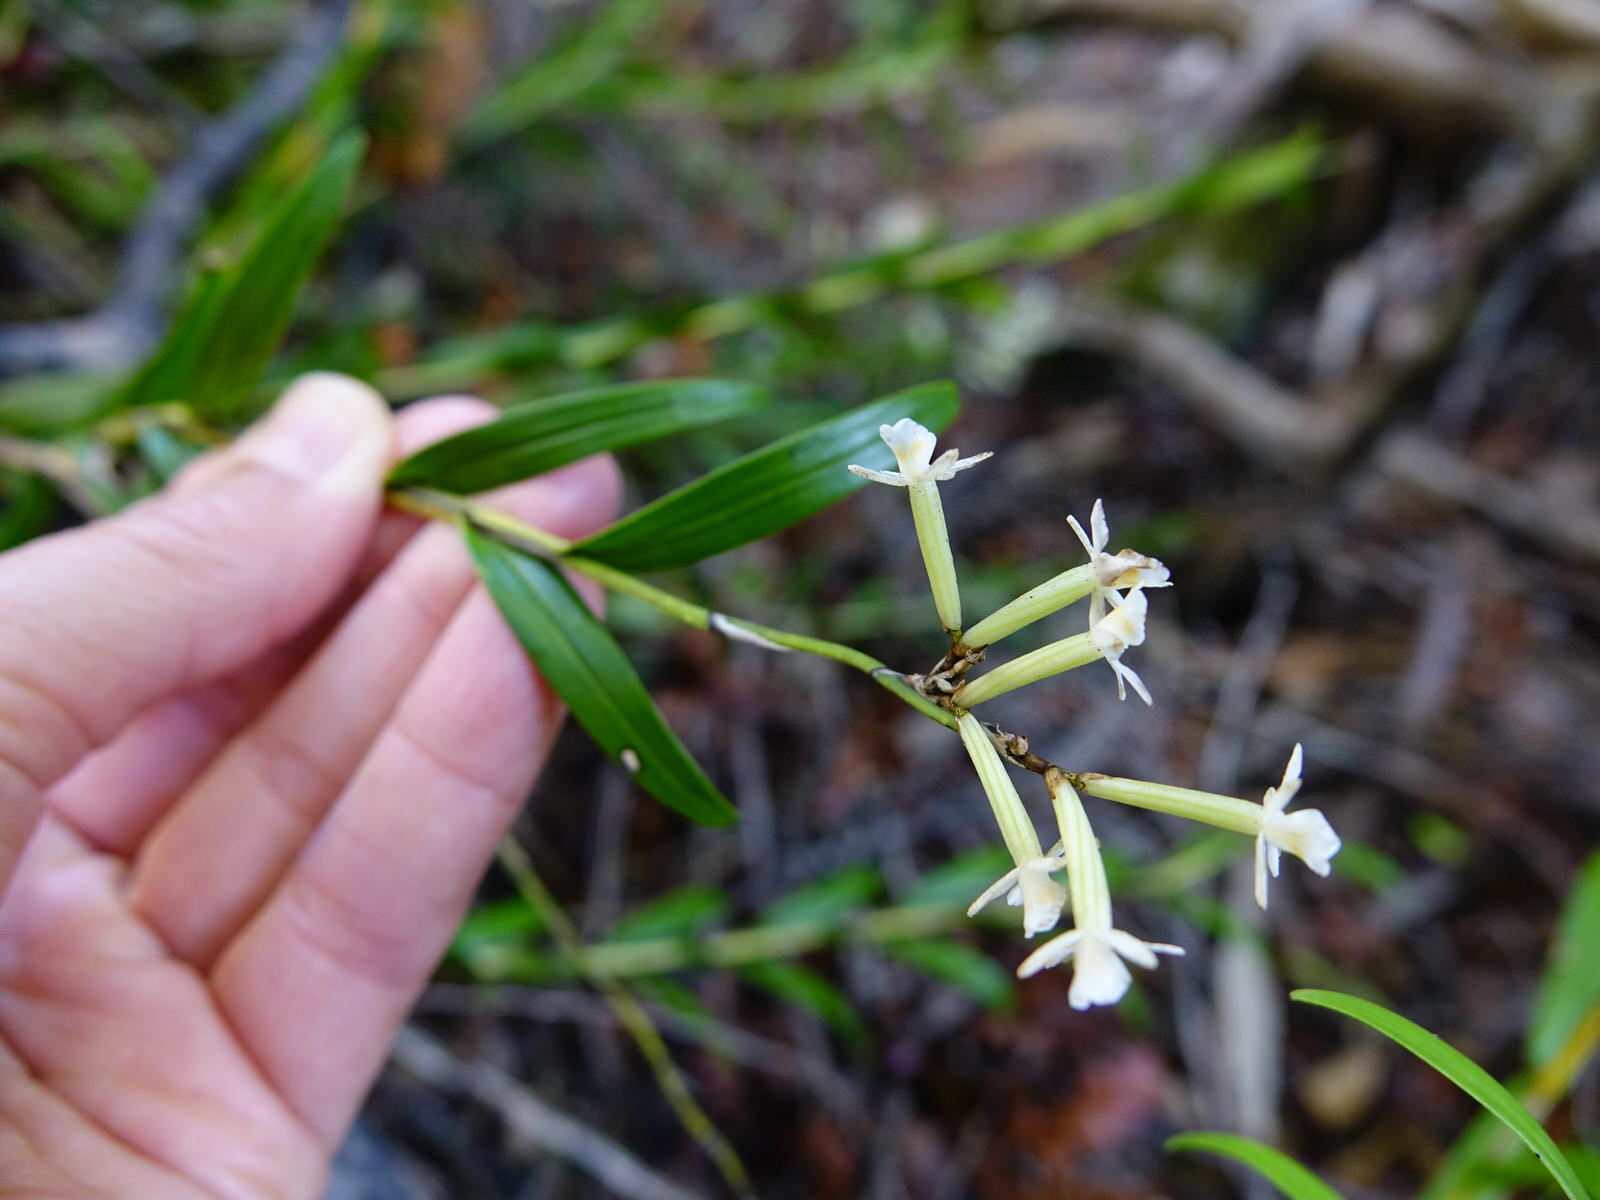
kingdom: Plantae
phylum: Tracheophyta
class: Liliopsida
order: Asparagales
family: Orchidaceae
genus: Earina
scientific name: Earina autumnalis
